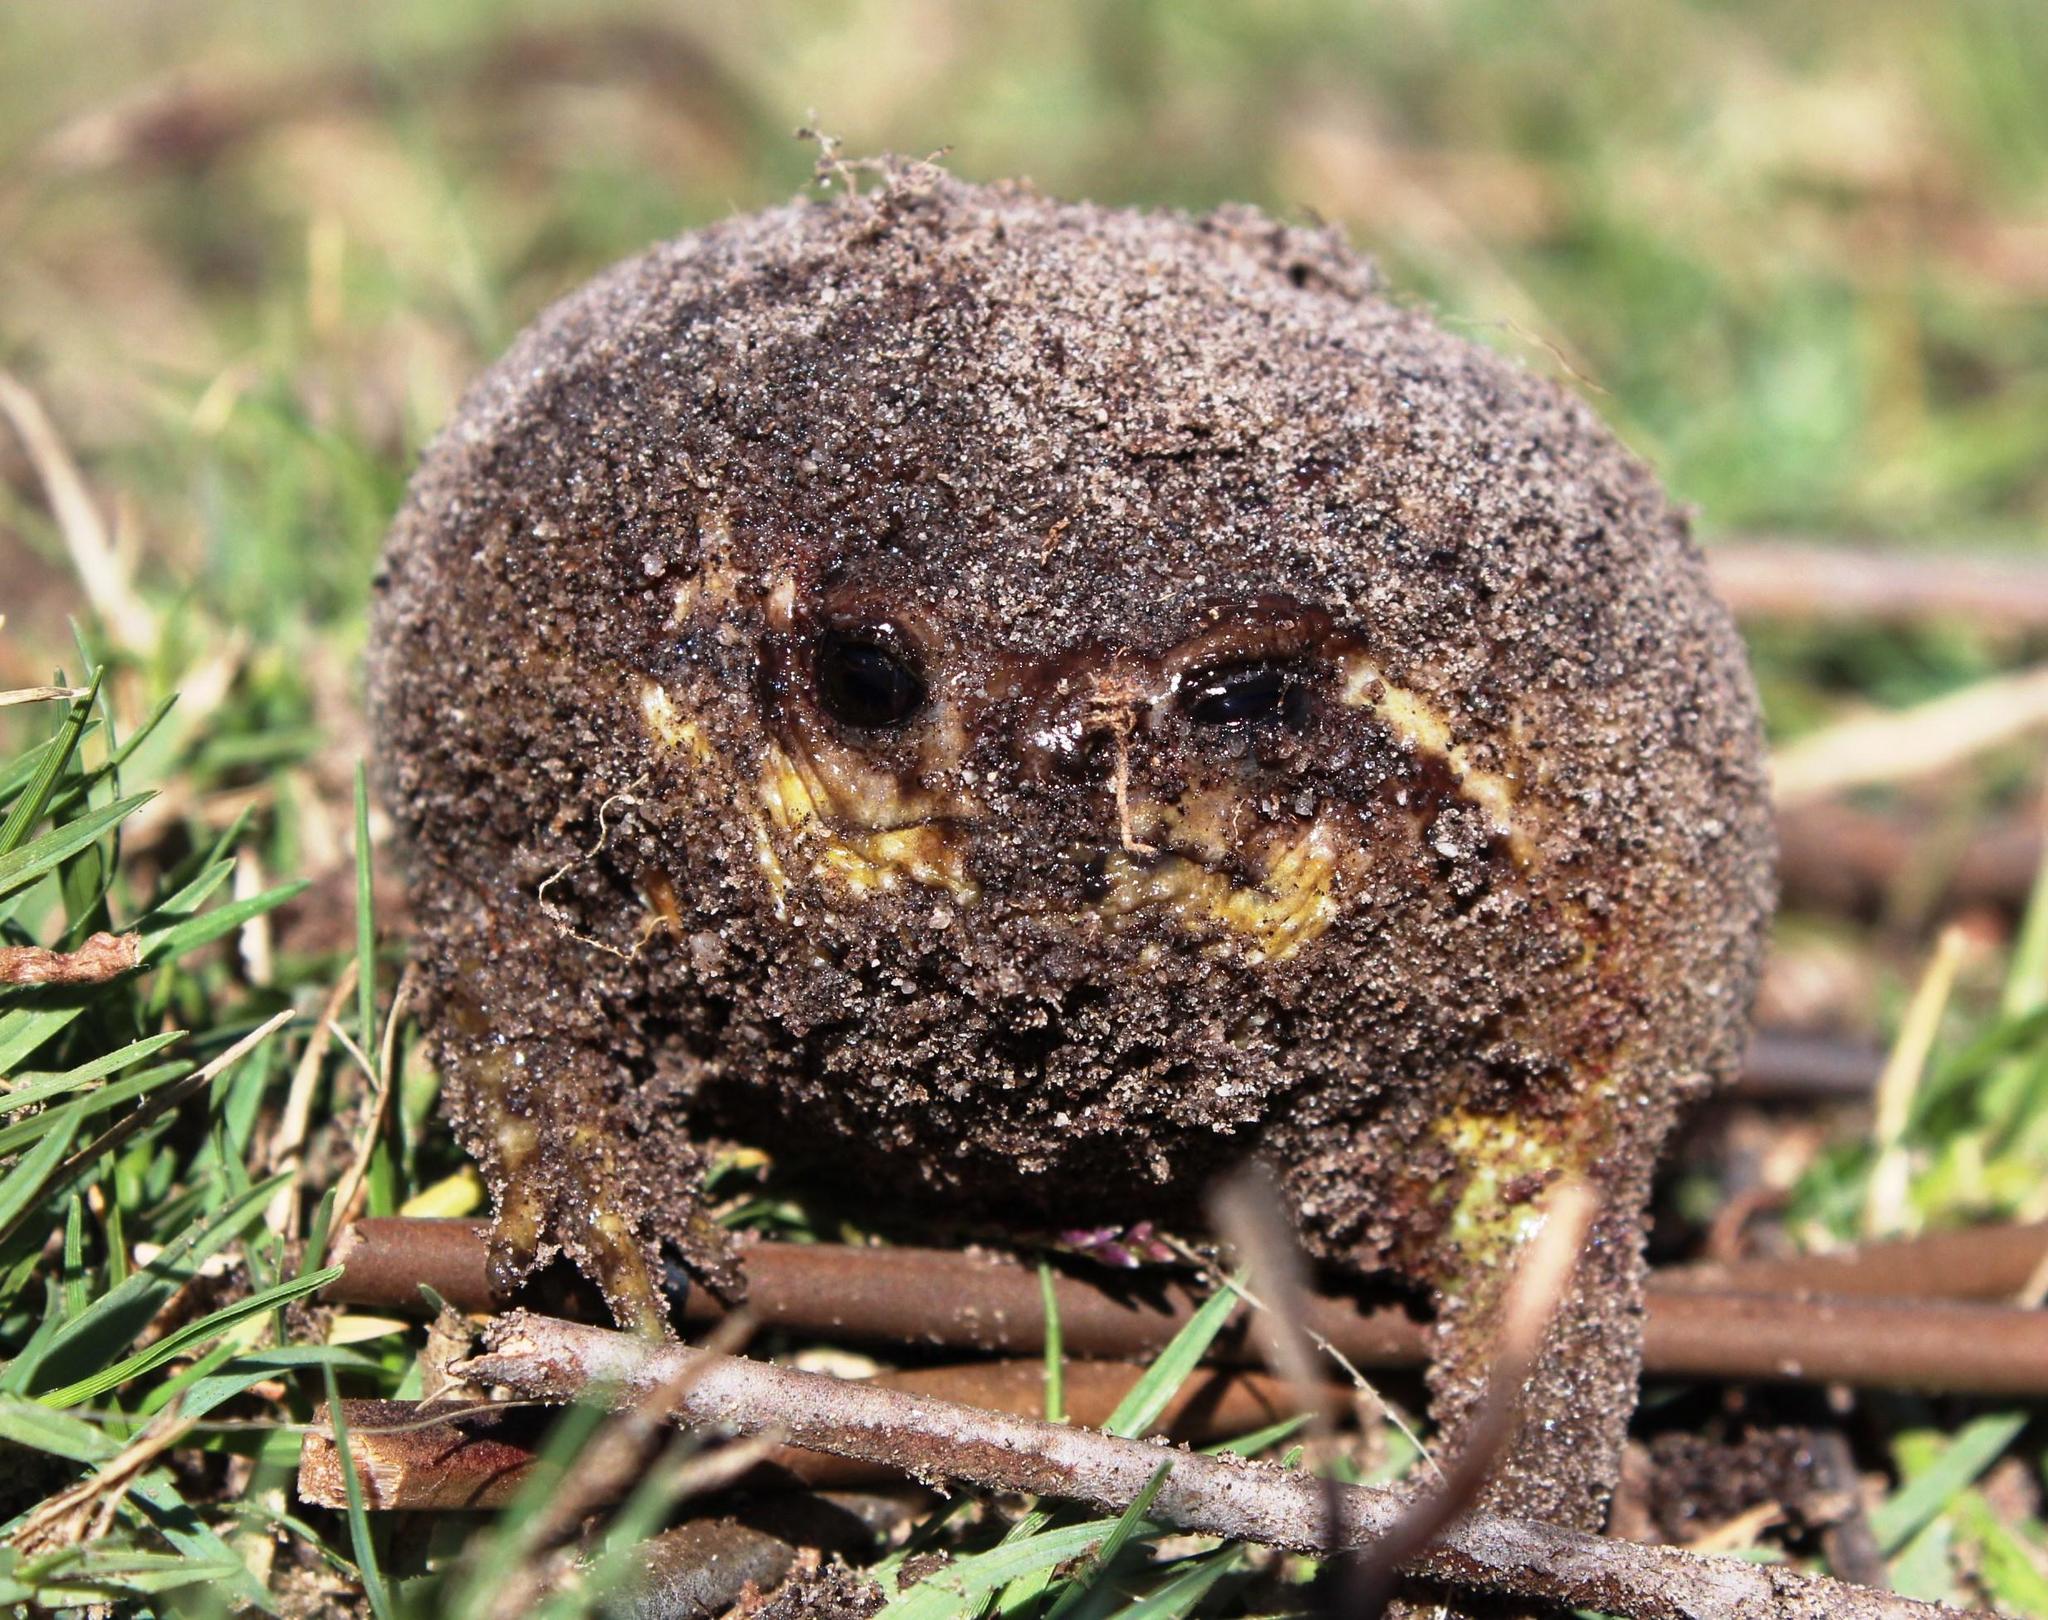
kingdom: Animalia
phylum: Chordata
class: Amphibia
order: Anura
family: Brevicipitidae
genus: Breviceps
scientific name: Breviceps gibbosus
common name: Cape rain frog
